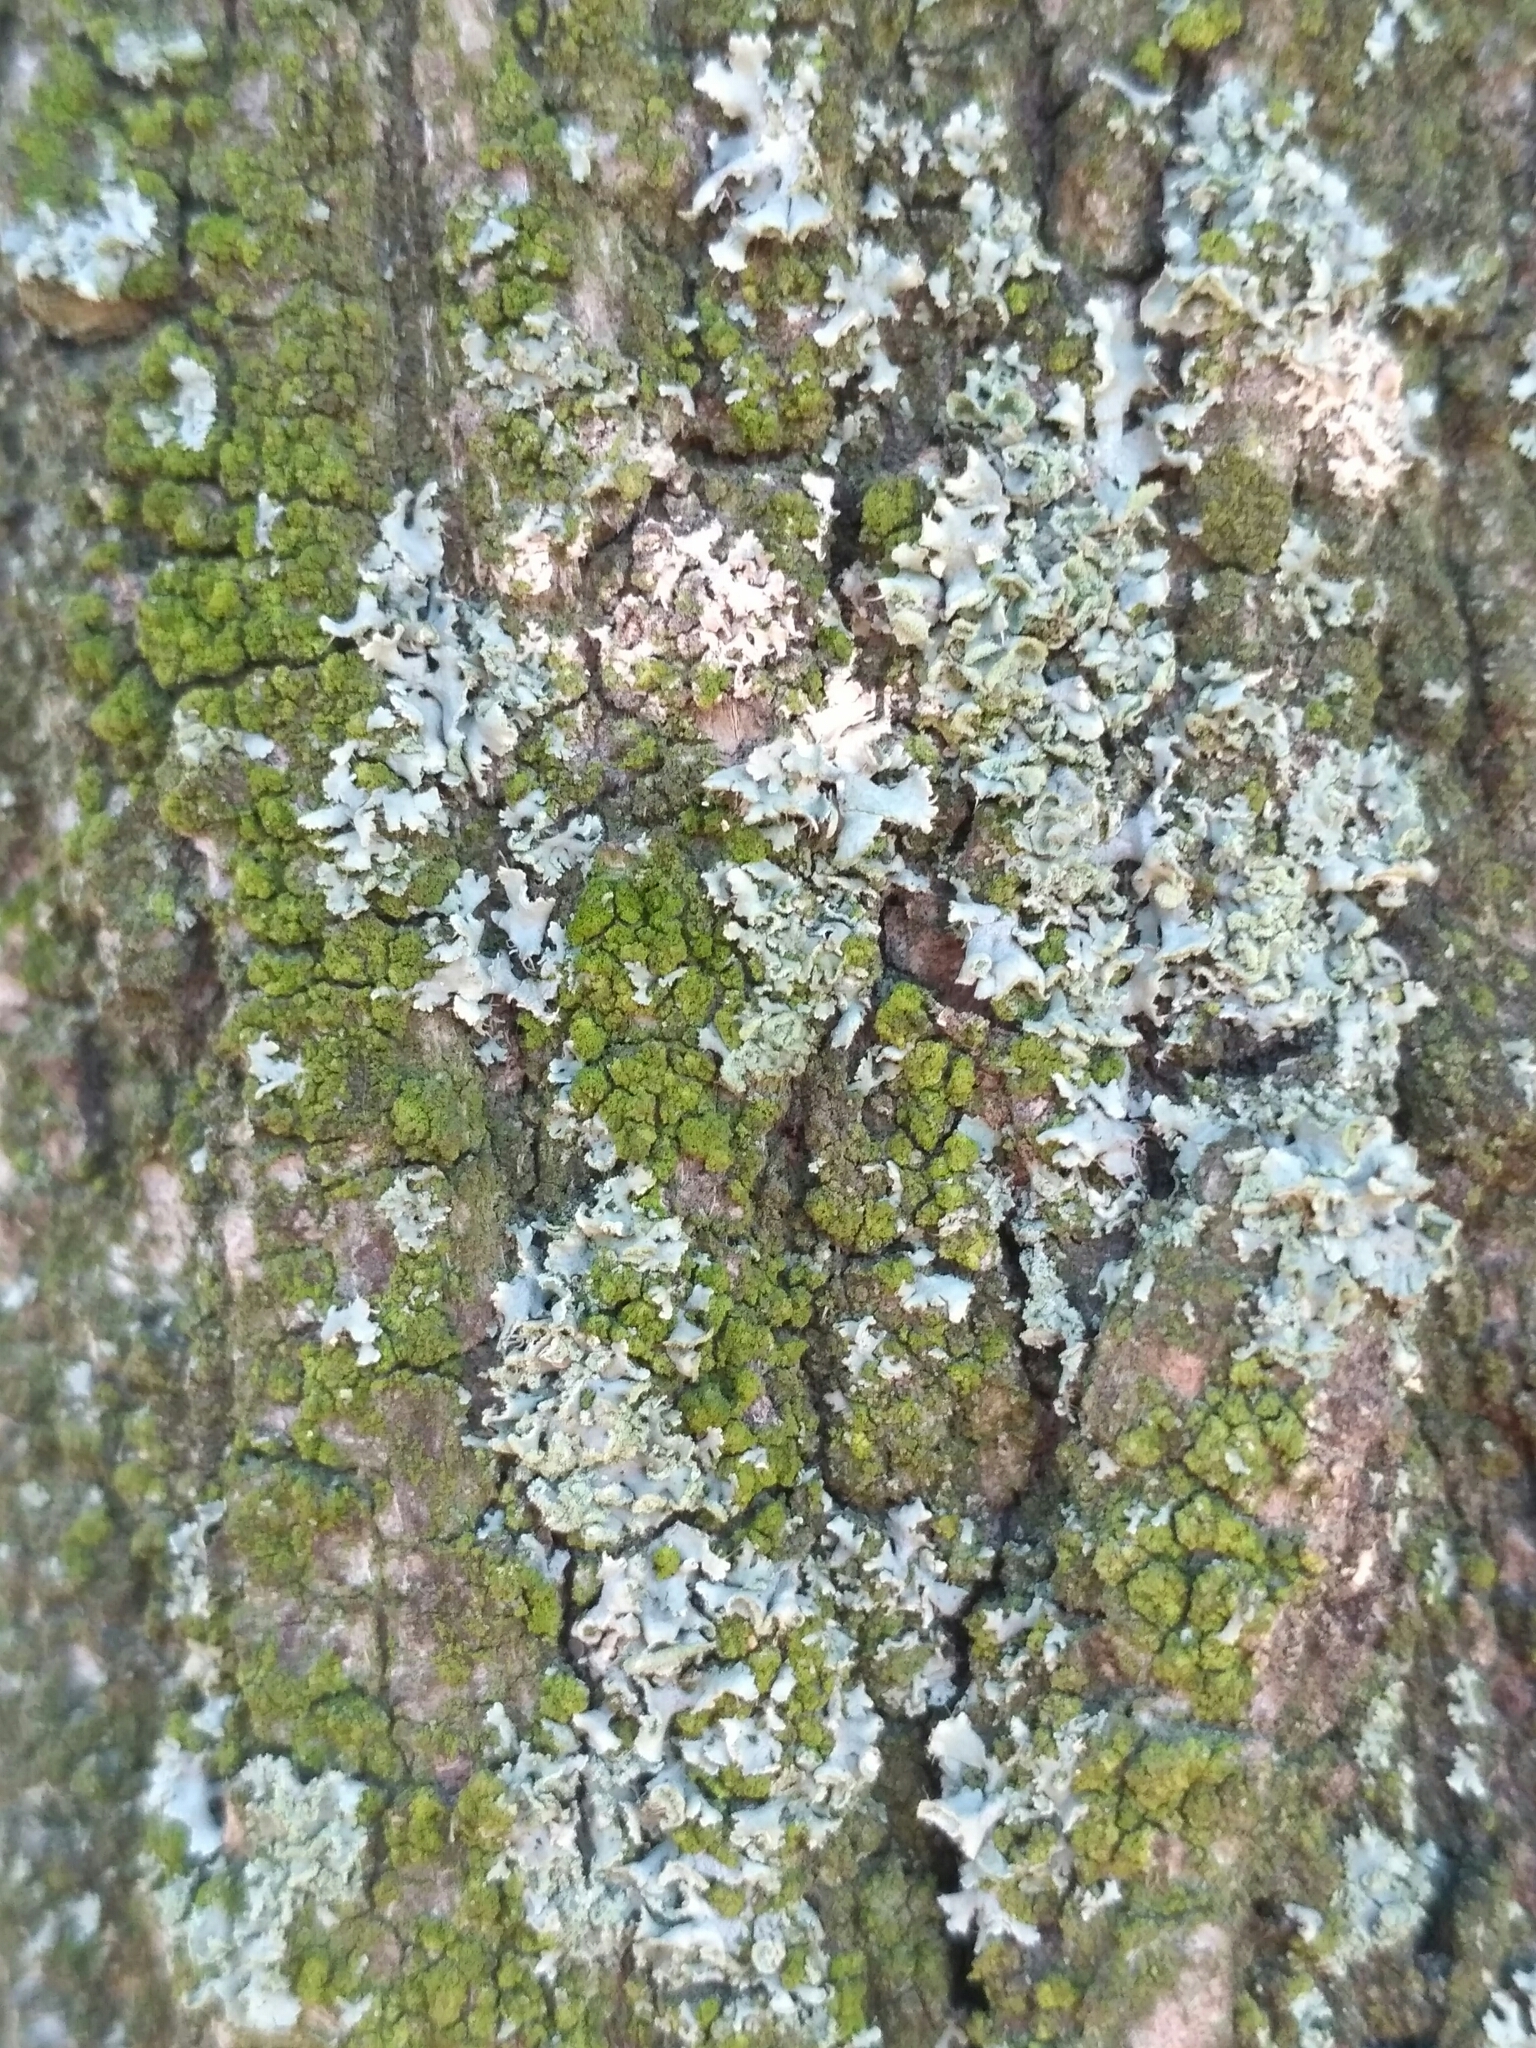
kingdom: Fungi
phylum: Ascomycota
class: Lecanoromycetes
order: Caliciales
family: Physciaceae
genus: Physcia
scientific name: Physcia adscendens
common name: Hooded rosette lichen
